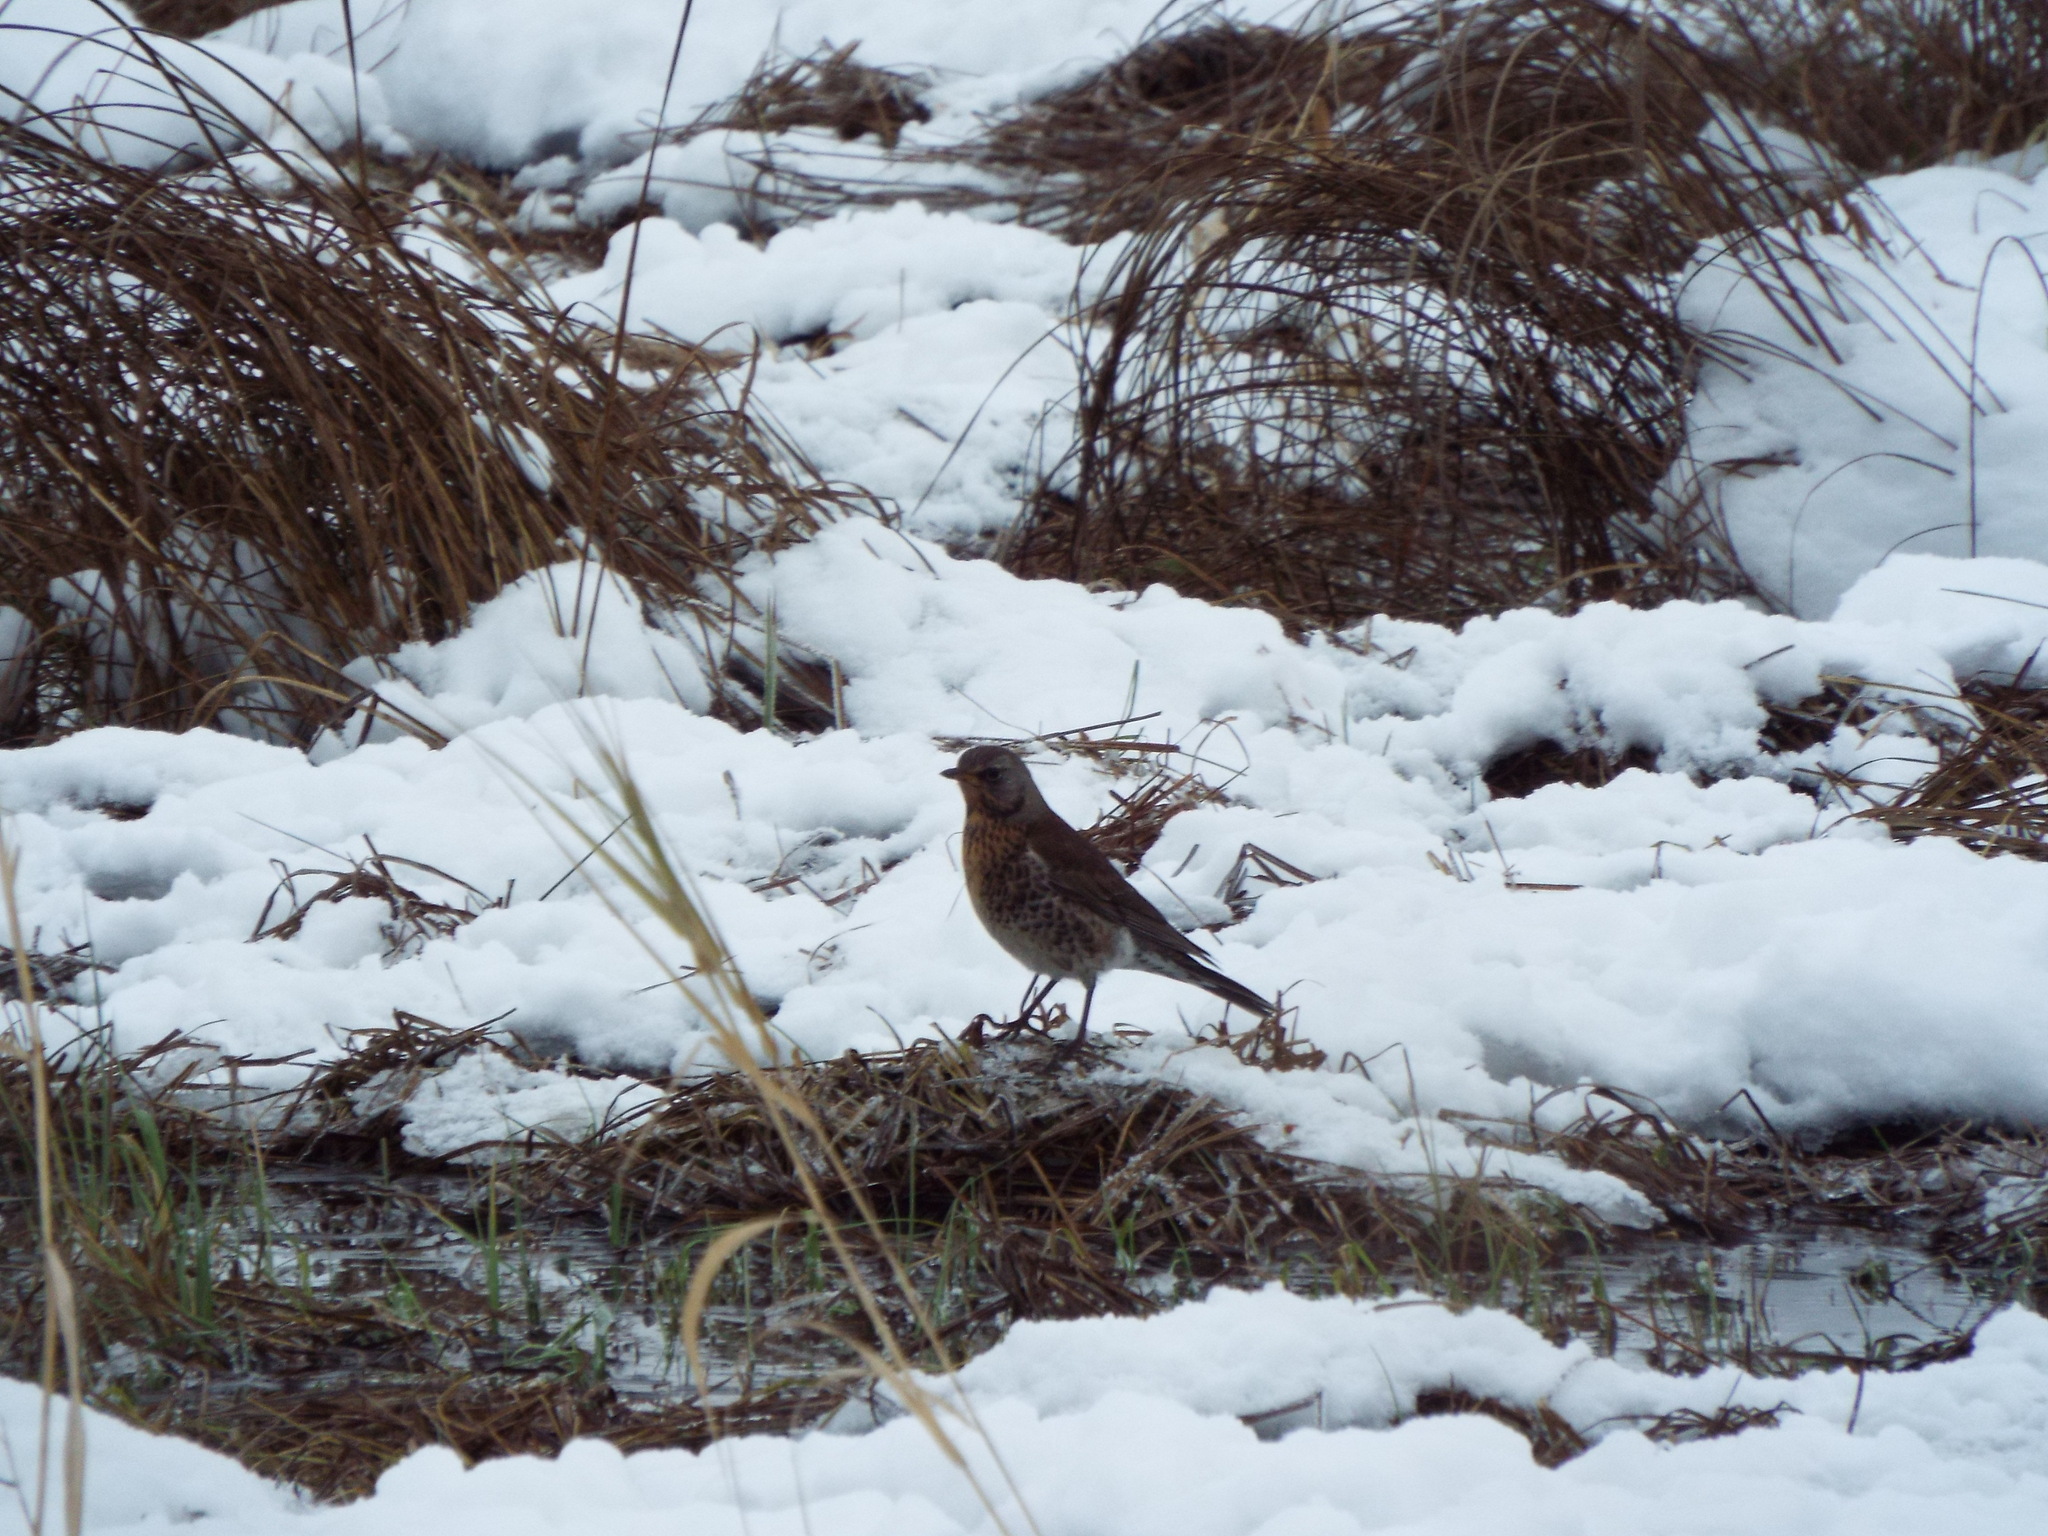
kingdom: Animalia
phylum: Chordata
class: Aves
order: Passeriformes
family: Turdidae
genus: Turdus
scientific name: Turdus pilaris
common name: Fieldfare
